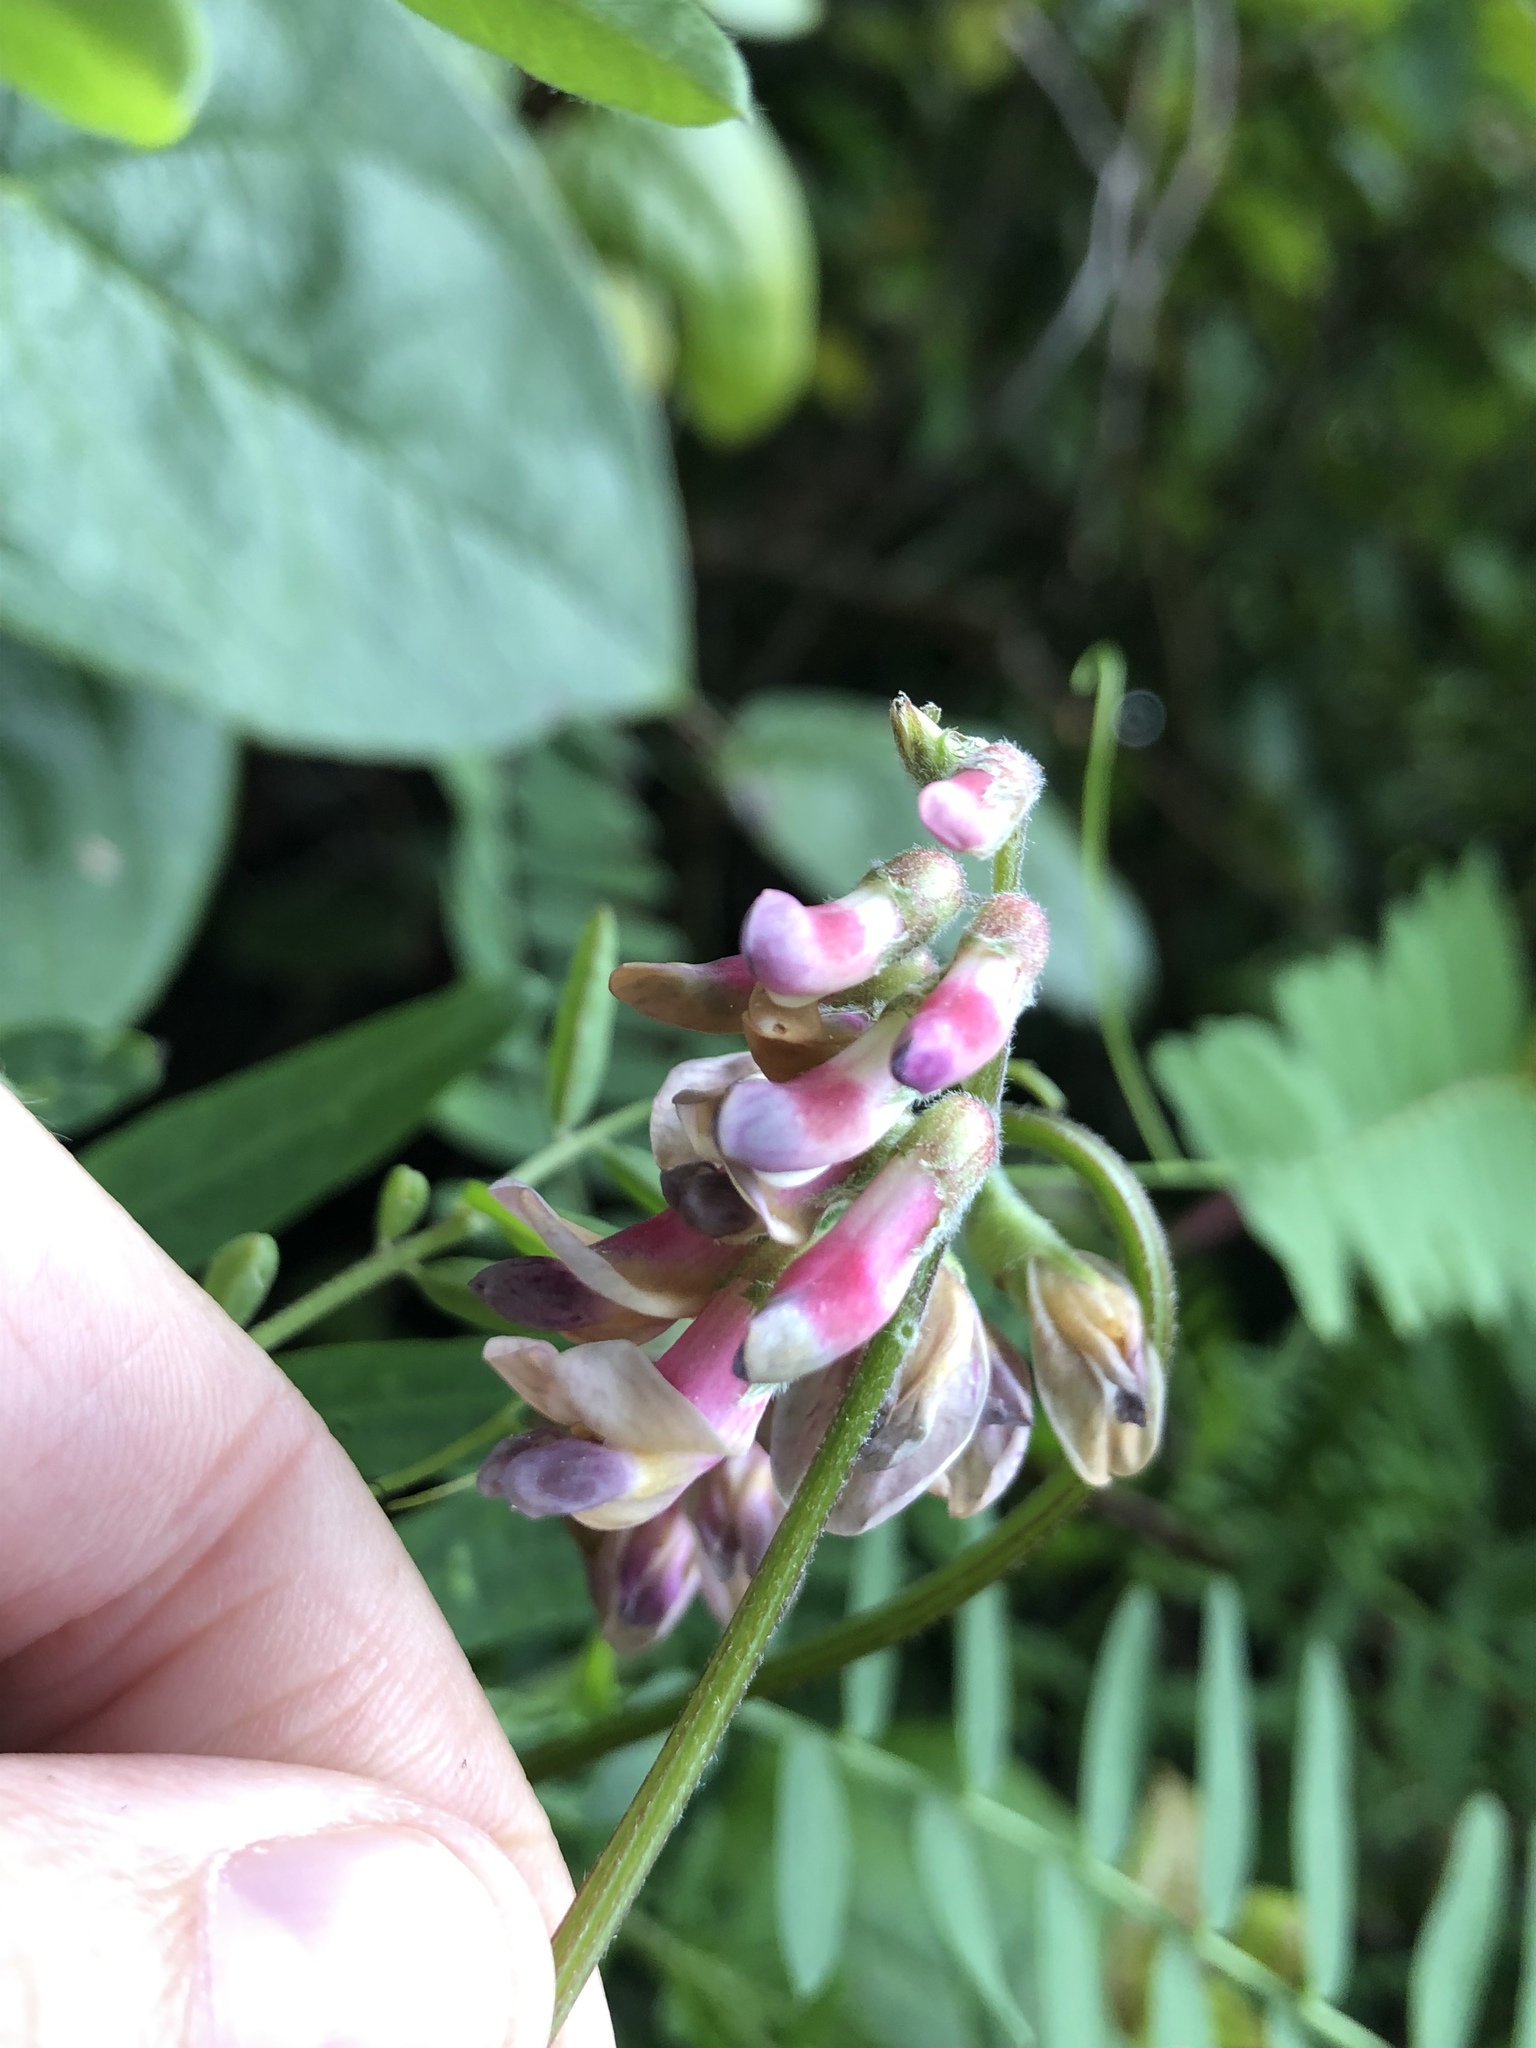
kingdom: Plantae
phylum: Tracheophyta
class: Magnoliopsida
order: Fabales
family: Fabaceae
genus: Vicia
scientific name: Vicia
